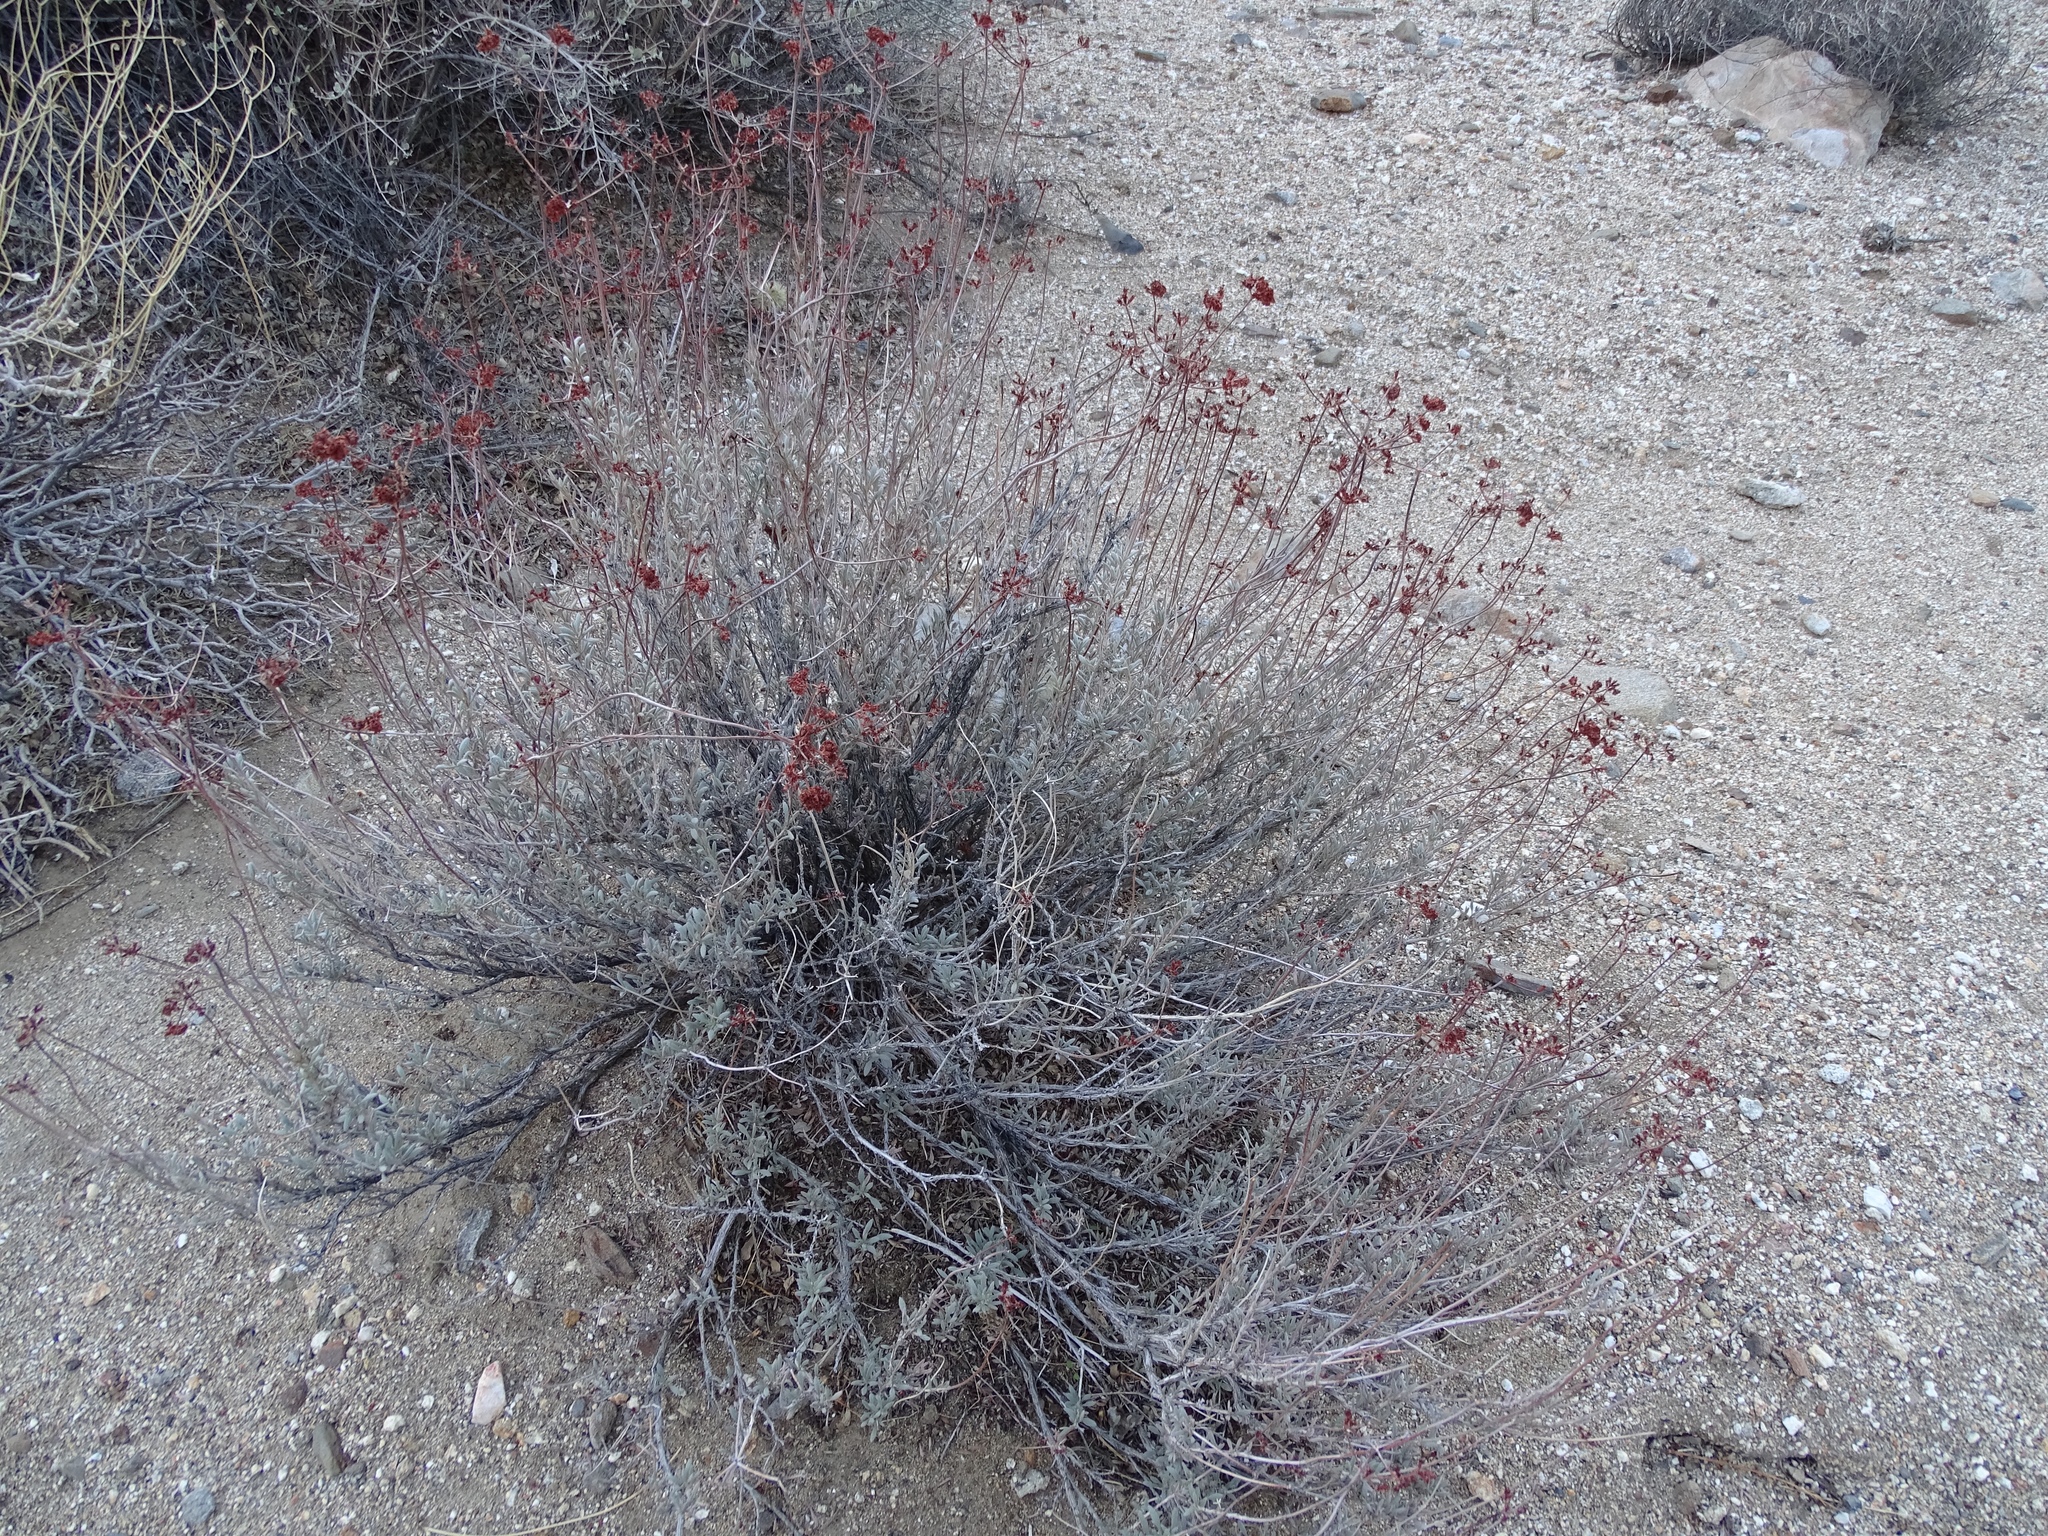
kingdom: Plantae
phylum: Tracheophyta
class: Magnoliopsida
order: Caryophyllales
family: Polygonaceae
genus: Eriogonum
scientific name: Eriogonum fasciculatum
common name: California wild buckwheat
